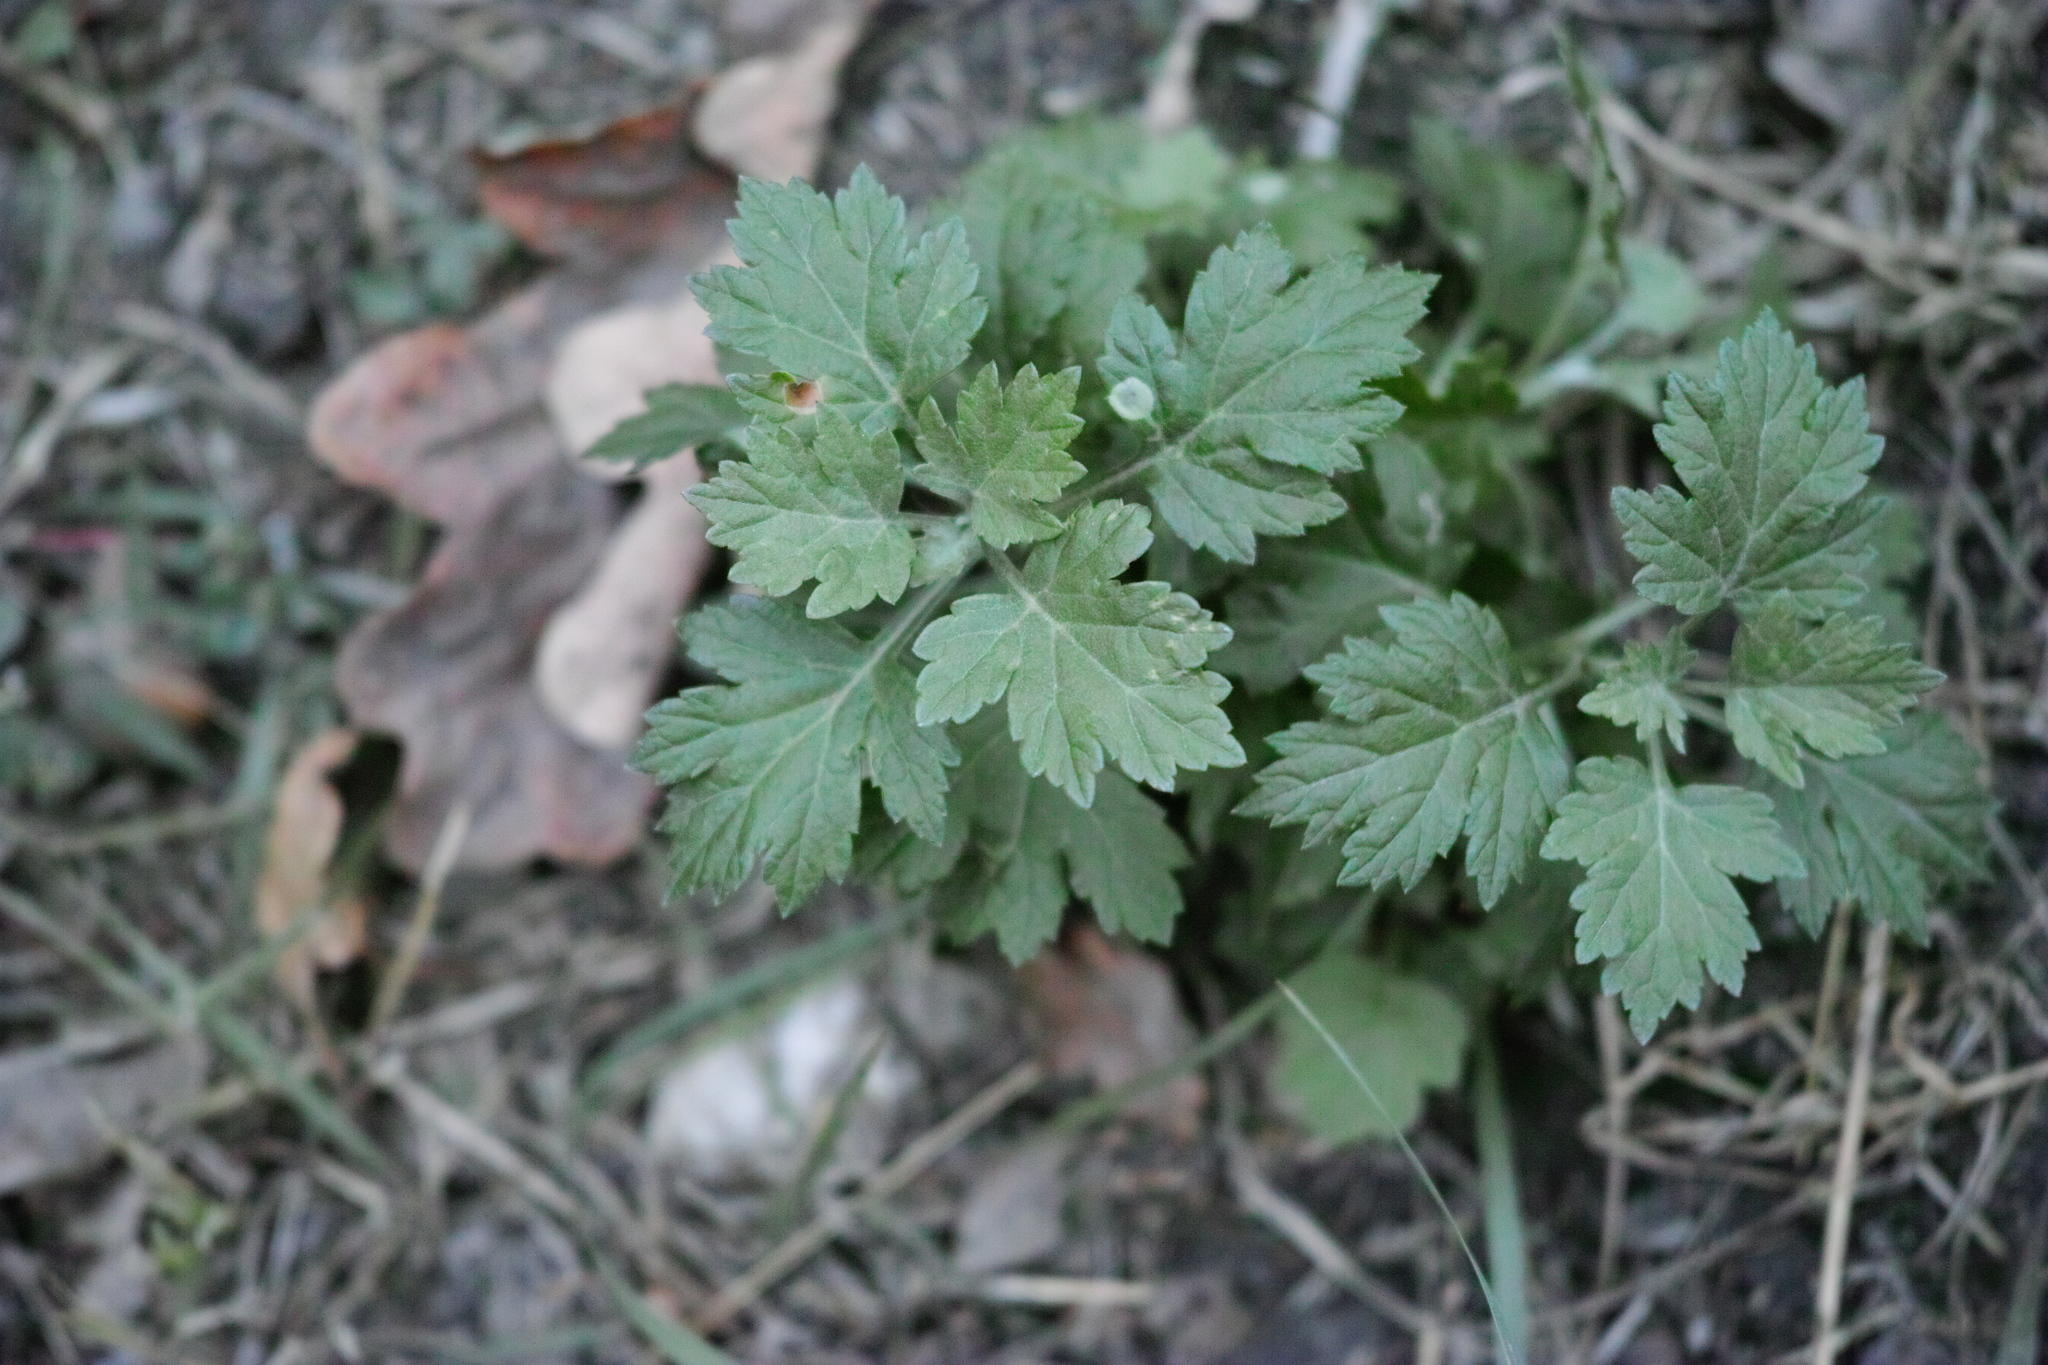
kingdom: Plantae
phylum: Tracheophyta
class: Magnoliopsida
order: Asterales
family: Asteraceae
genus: Artemisia
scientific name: Artemisia vulgaris
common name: Mugwort
